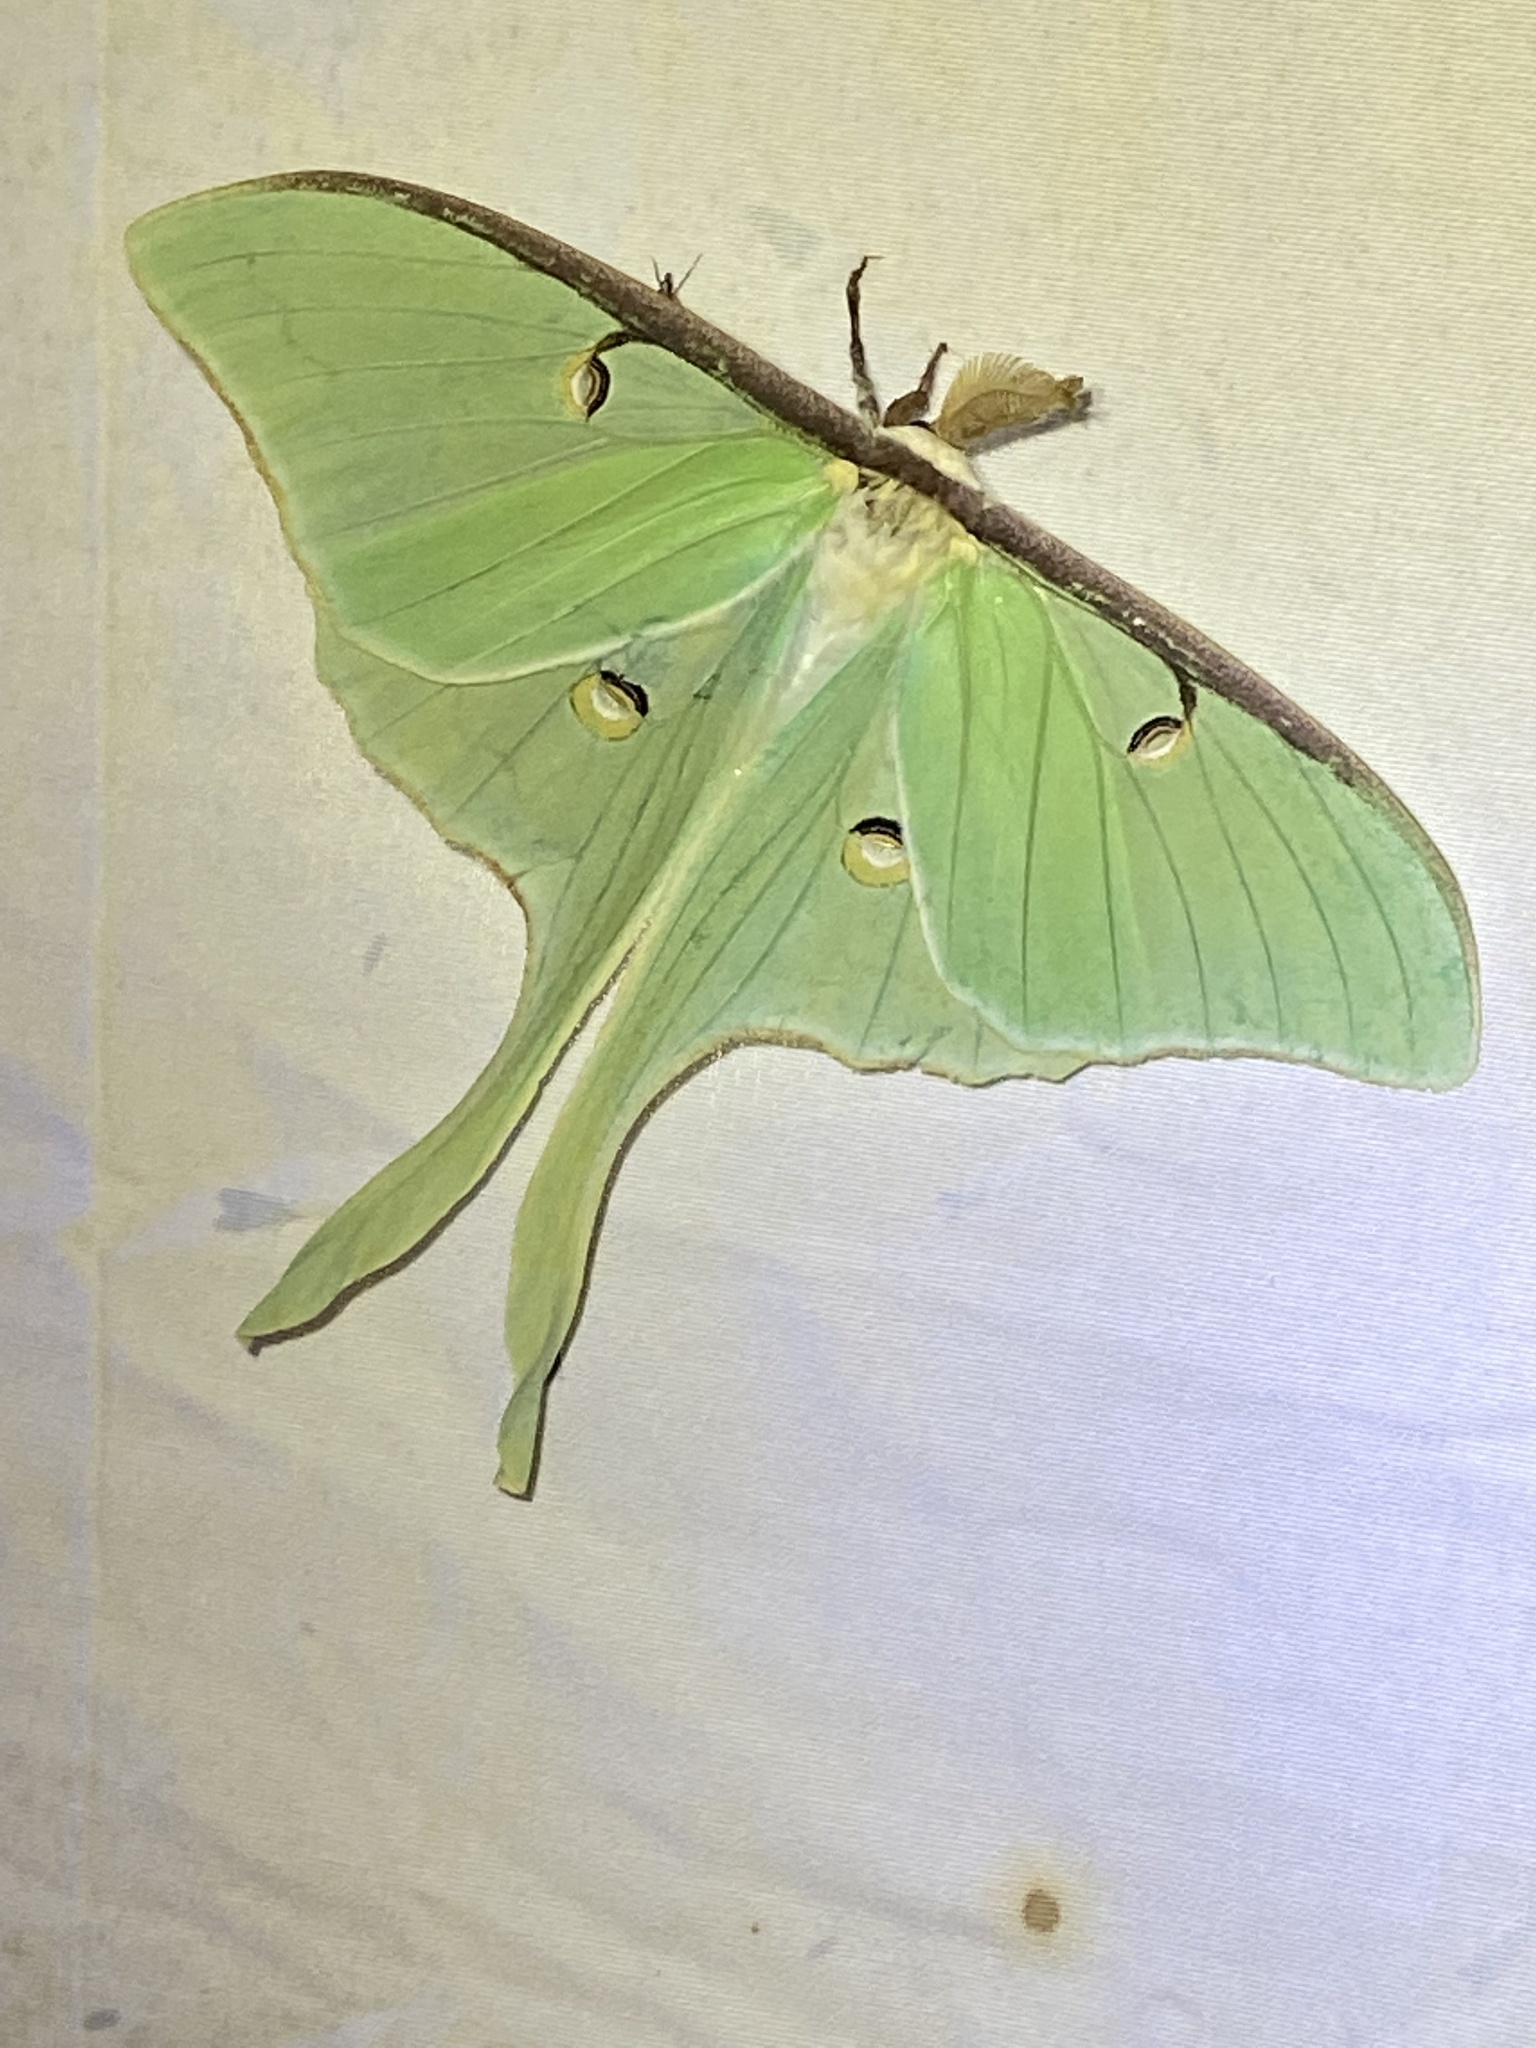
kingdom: Animalia
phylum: Arthropoda
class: Insecta
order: Lepidoptera
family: Saturniidae
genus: Actias
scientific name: Actias luna
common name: Luna moth
